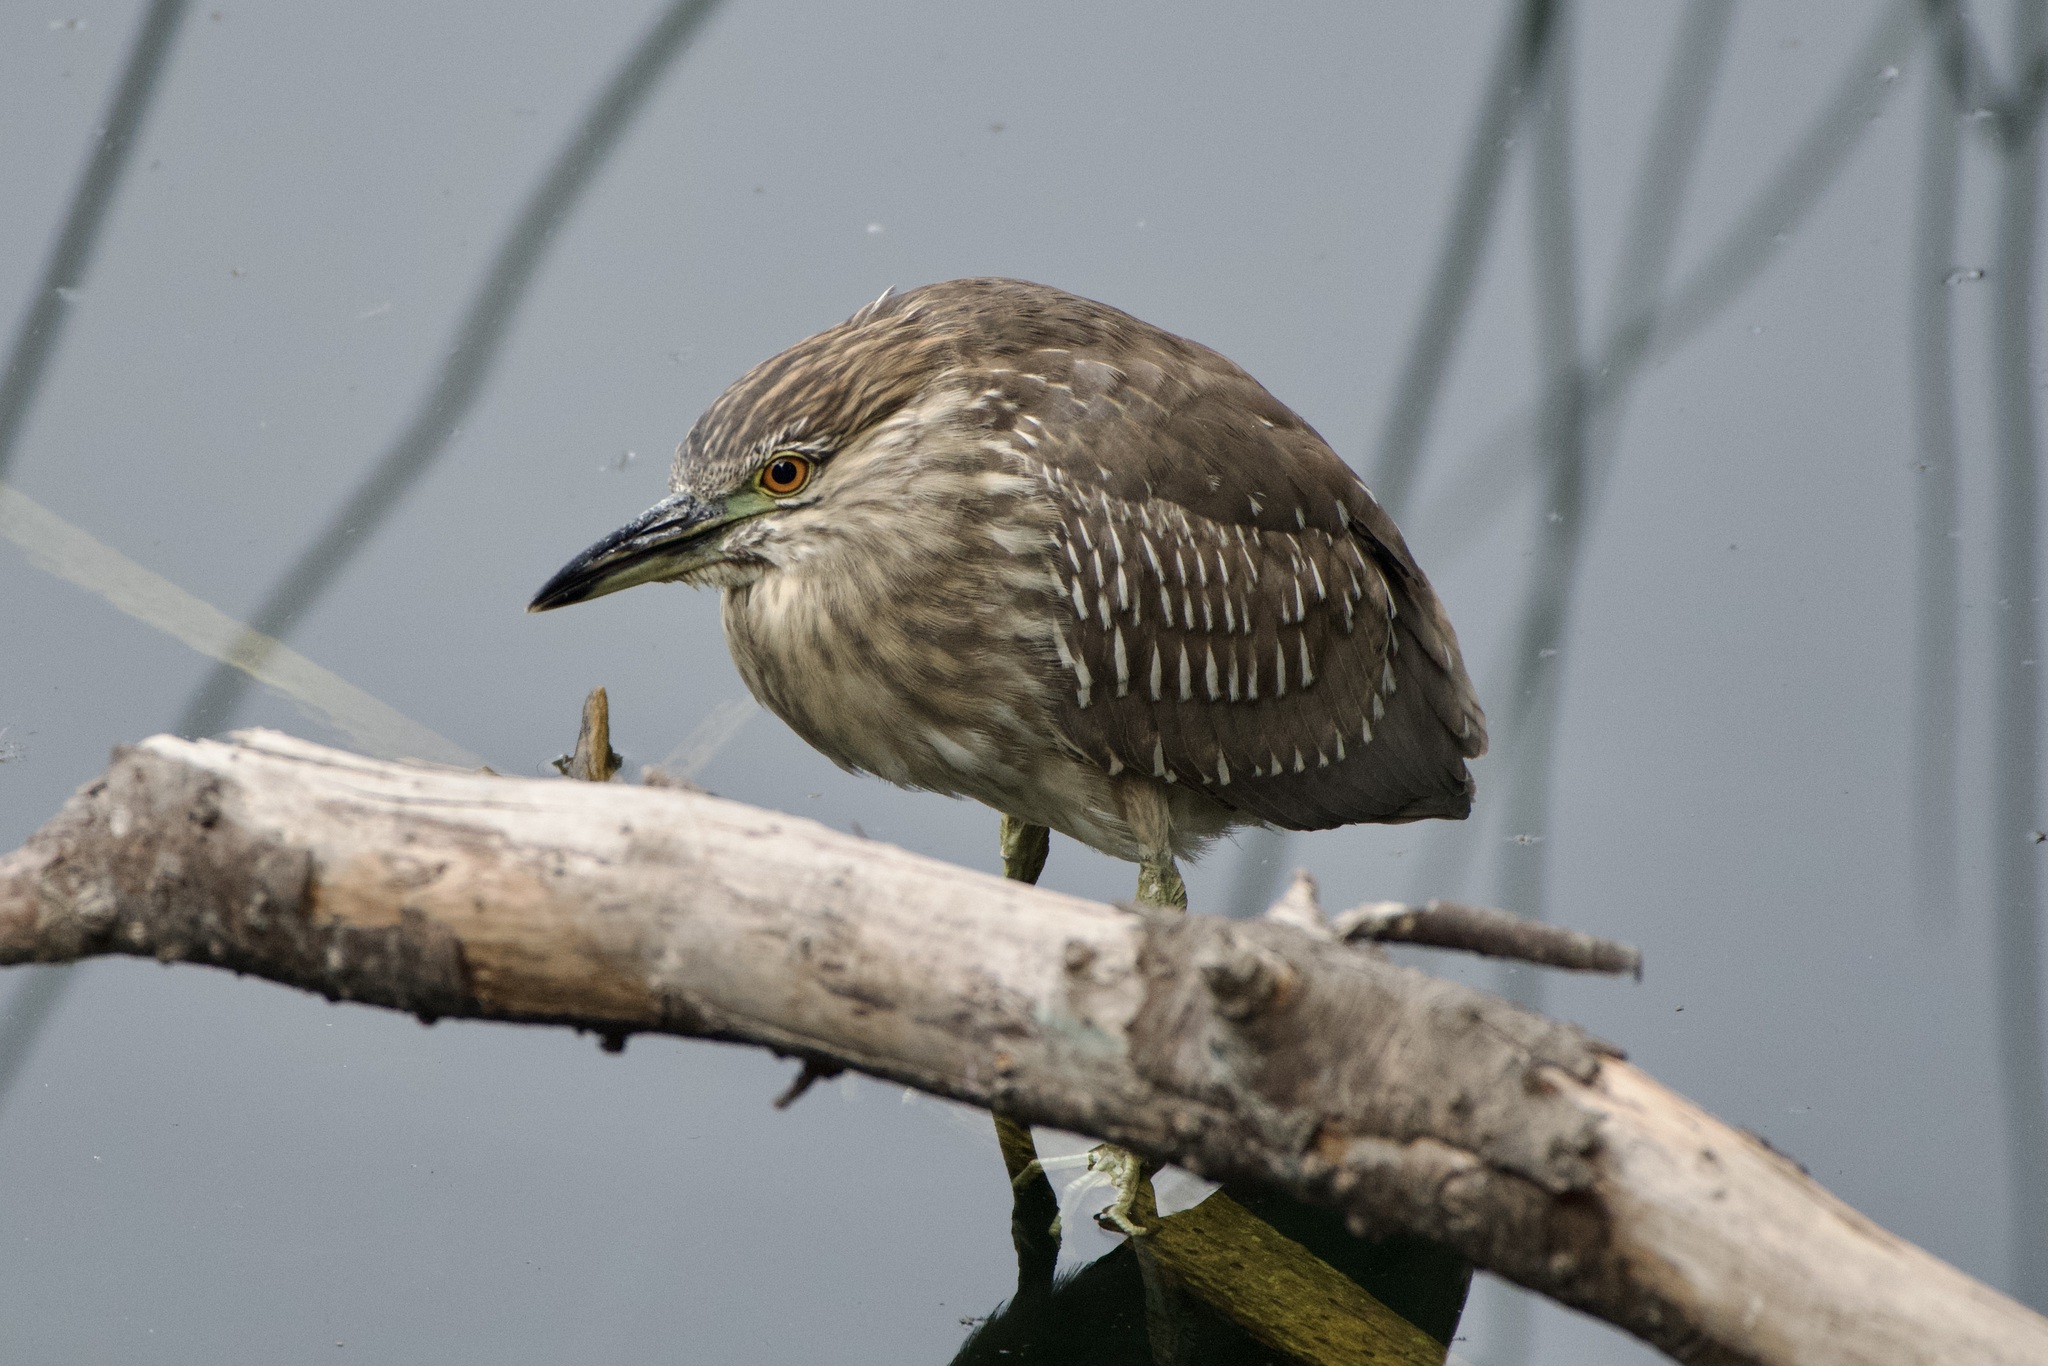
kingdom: Animalia
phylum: Chordata
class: Aves
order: Pelecaniformes
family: Ardeidae
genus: Nycticorax
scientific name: Nycticorax nycticorax
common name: Black-crowned night heron
